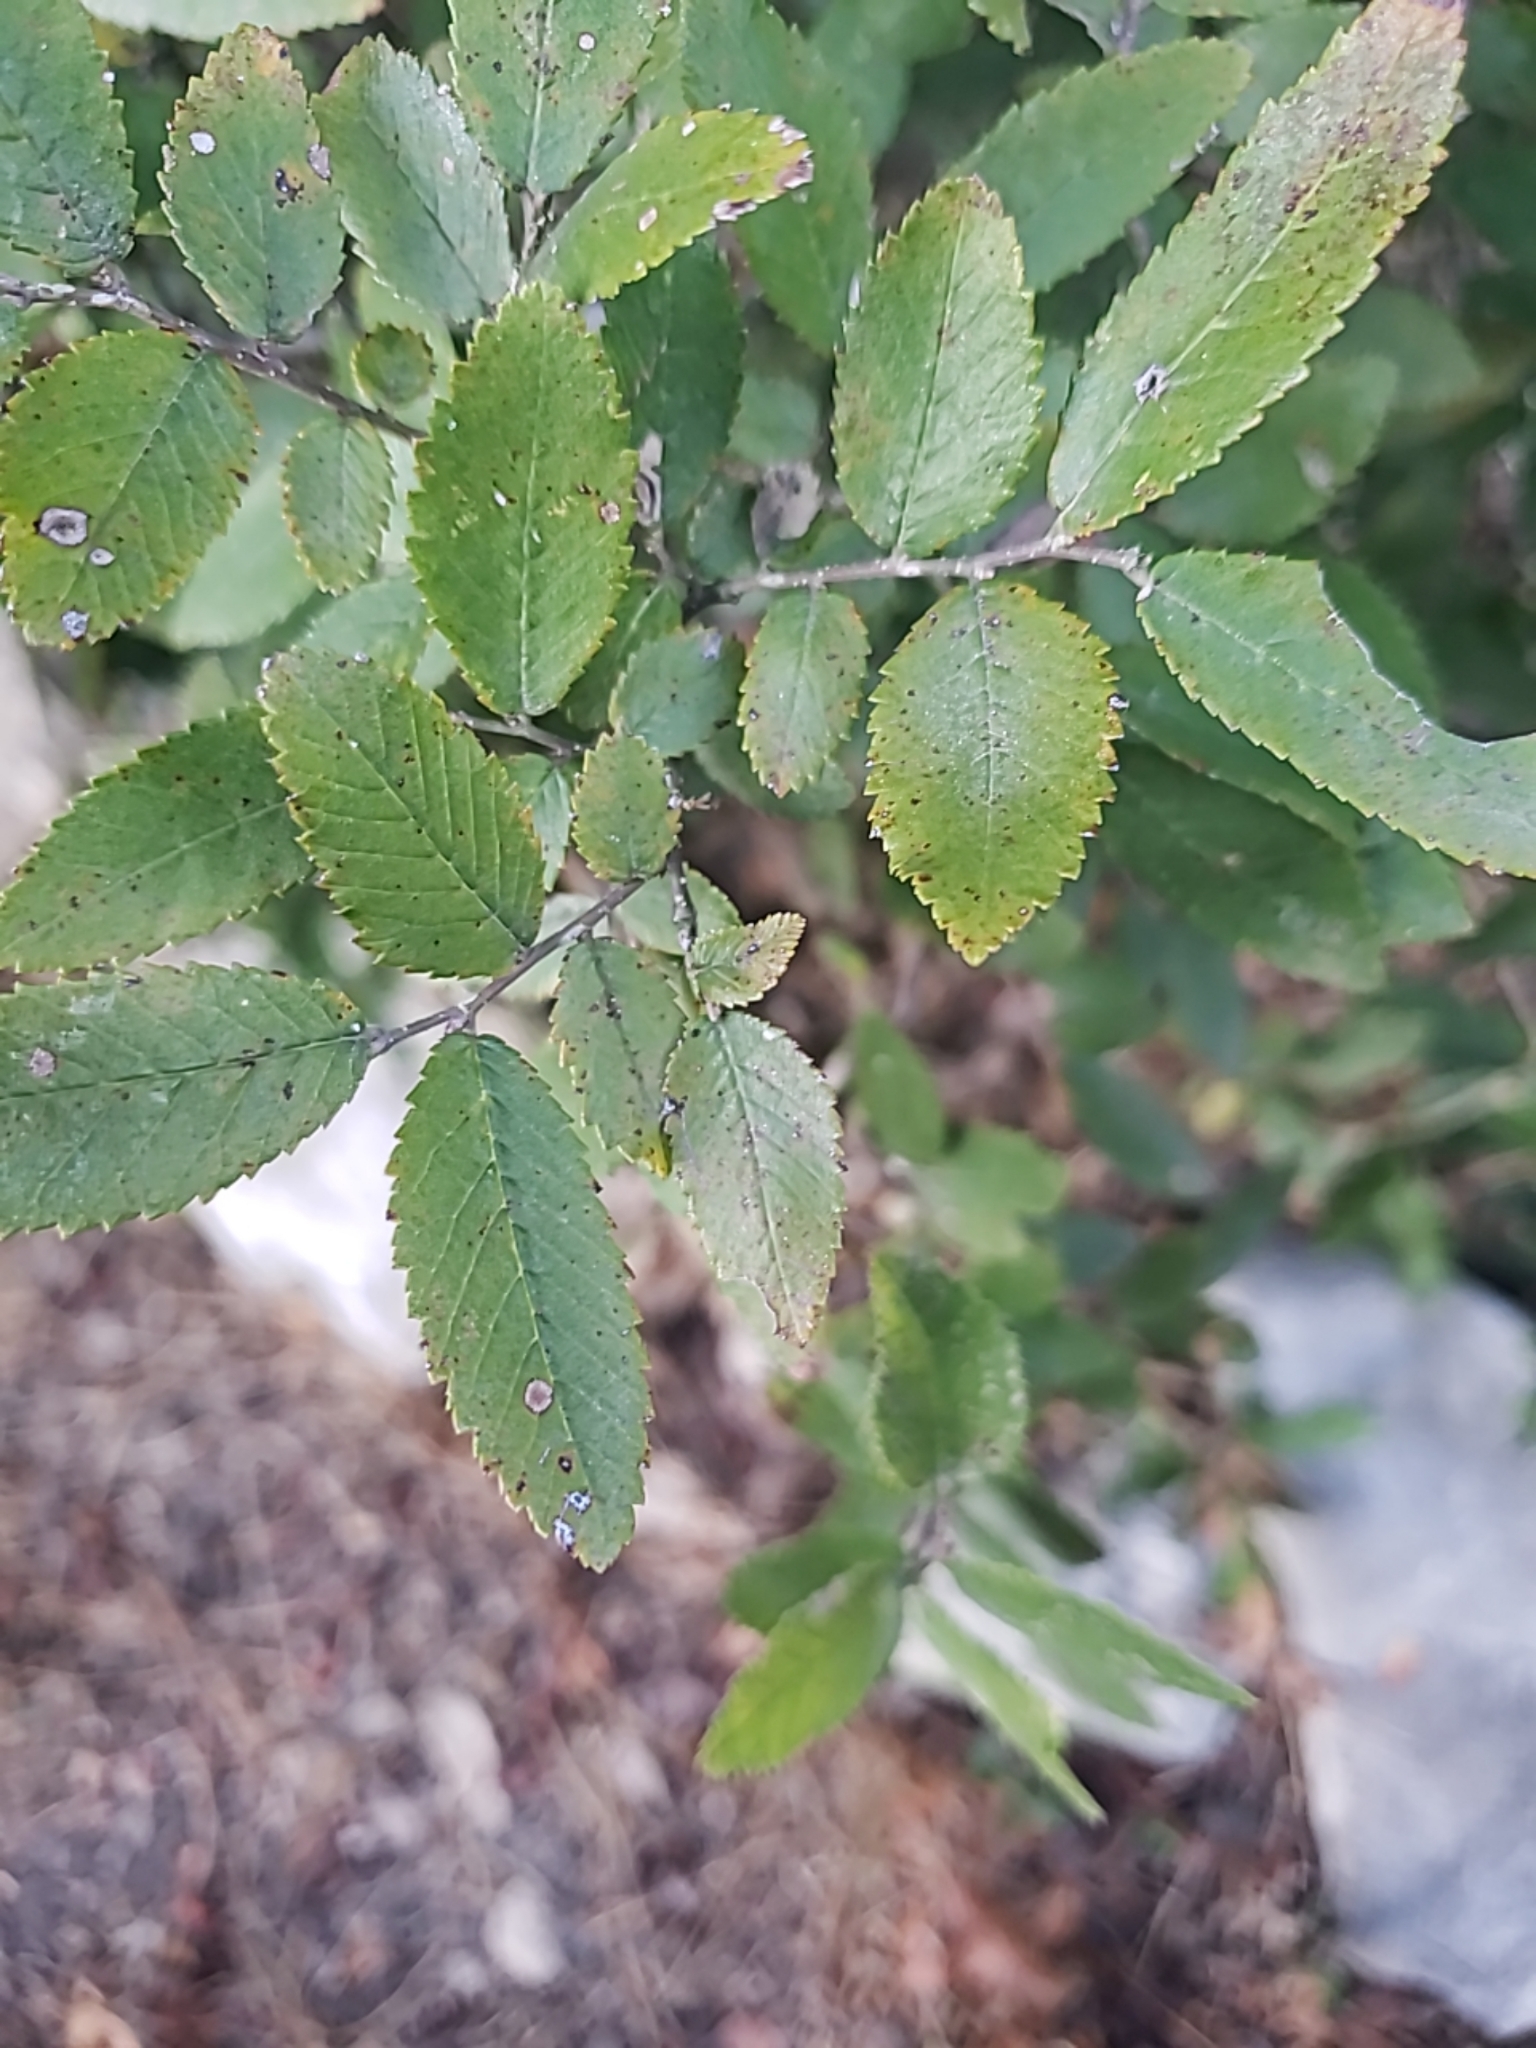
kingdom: Plantae
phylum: Tracheophyta
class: Magnoliopsida
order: Rosales
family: Ulmaceae
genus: Ulmus
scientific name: Ulmus crassifolia
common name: Basket elm
